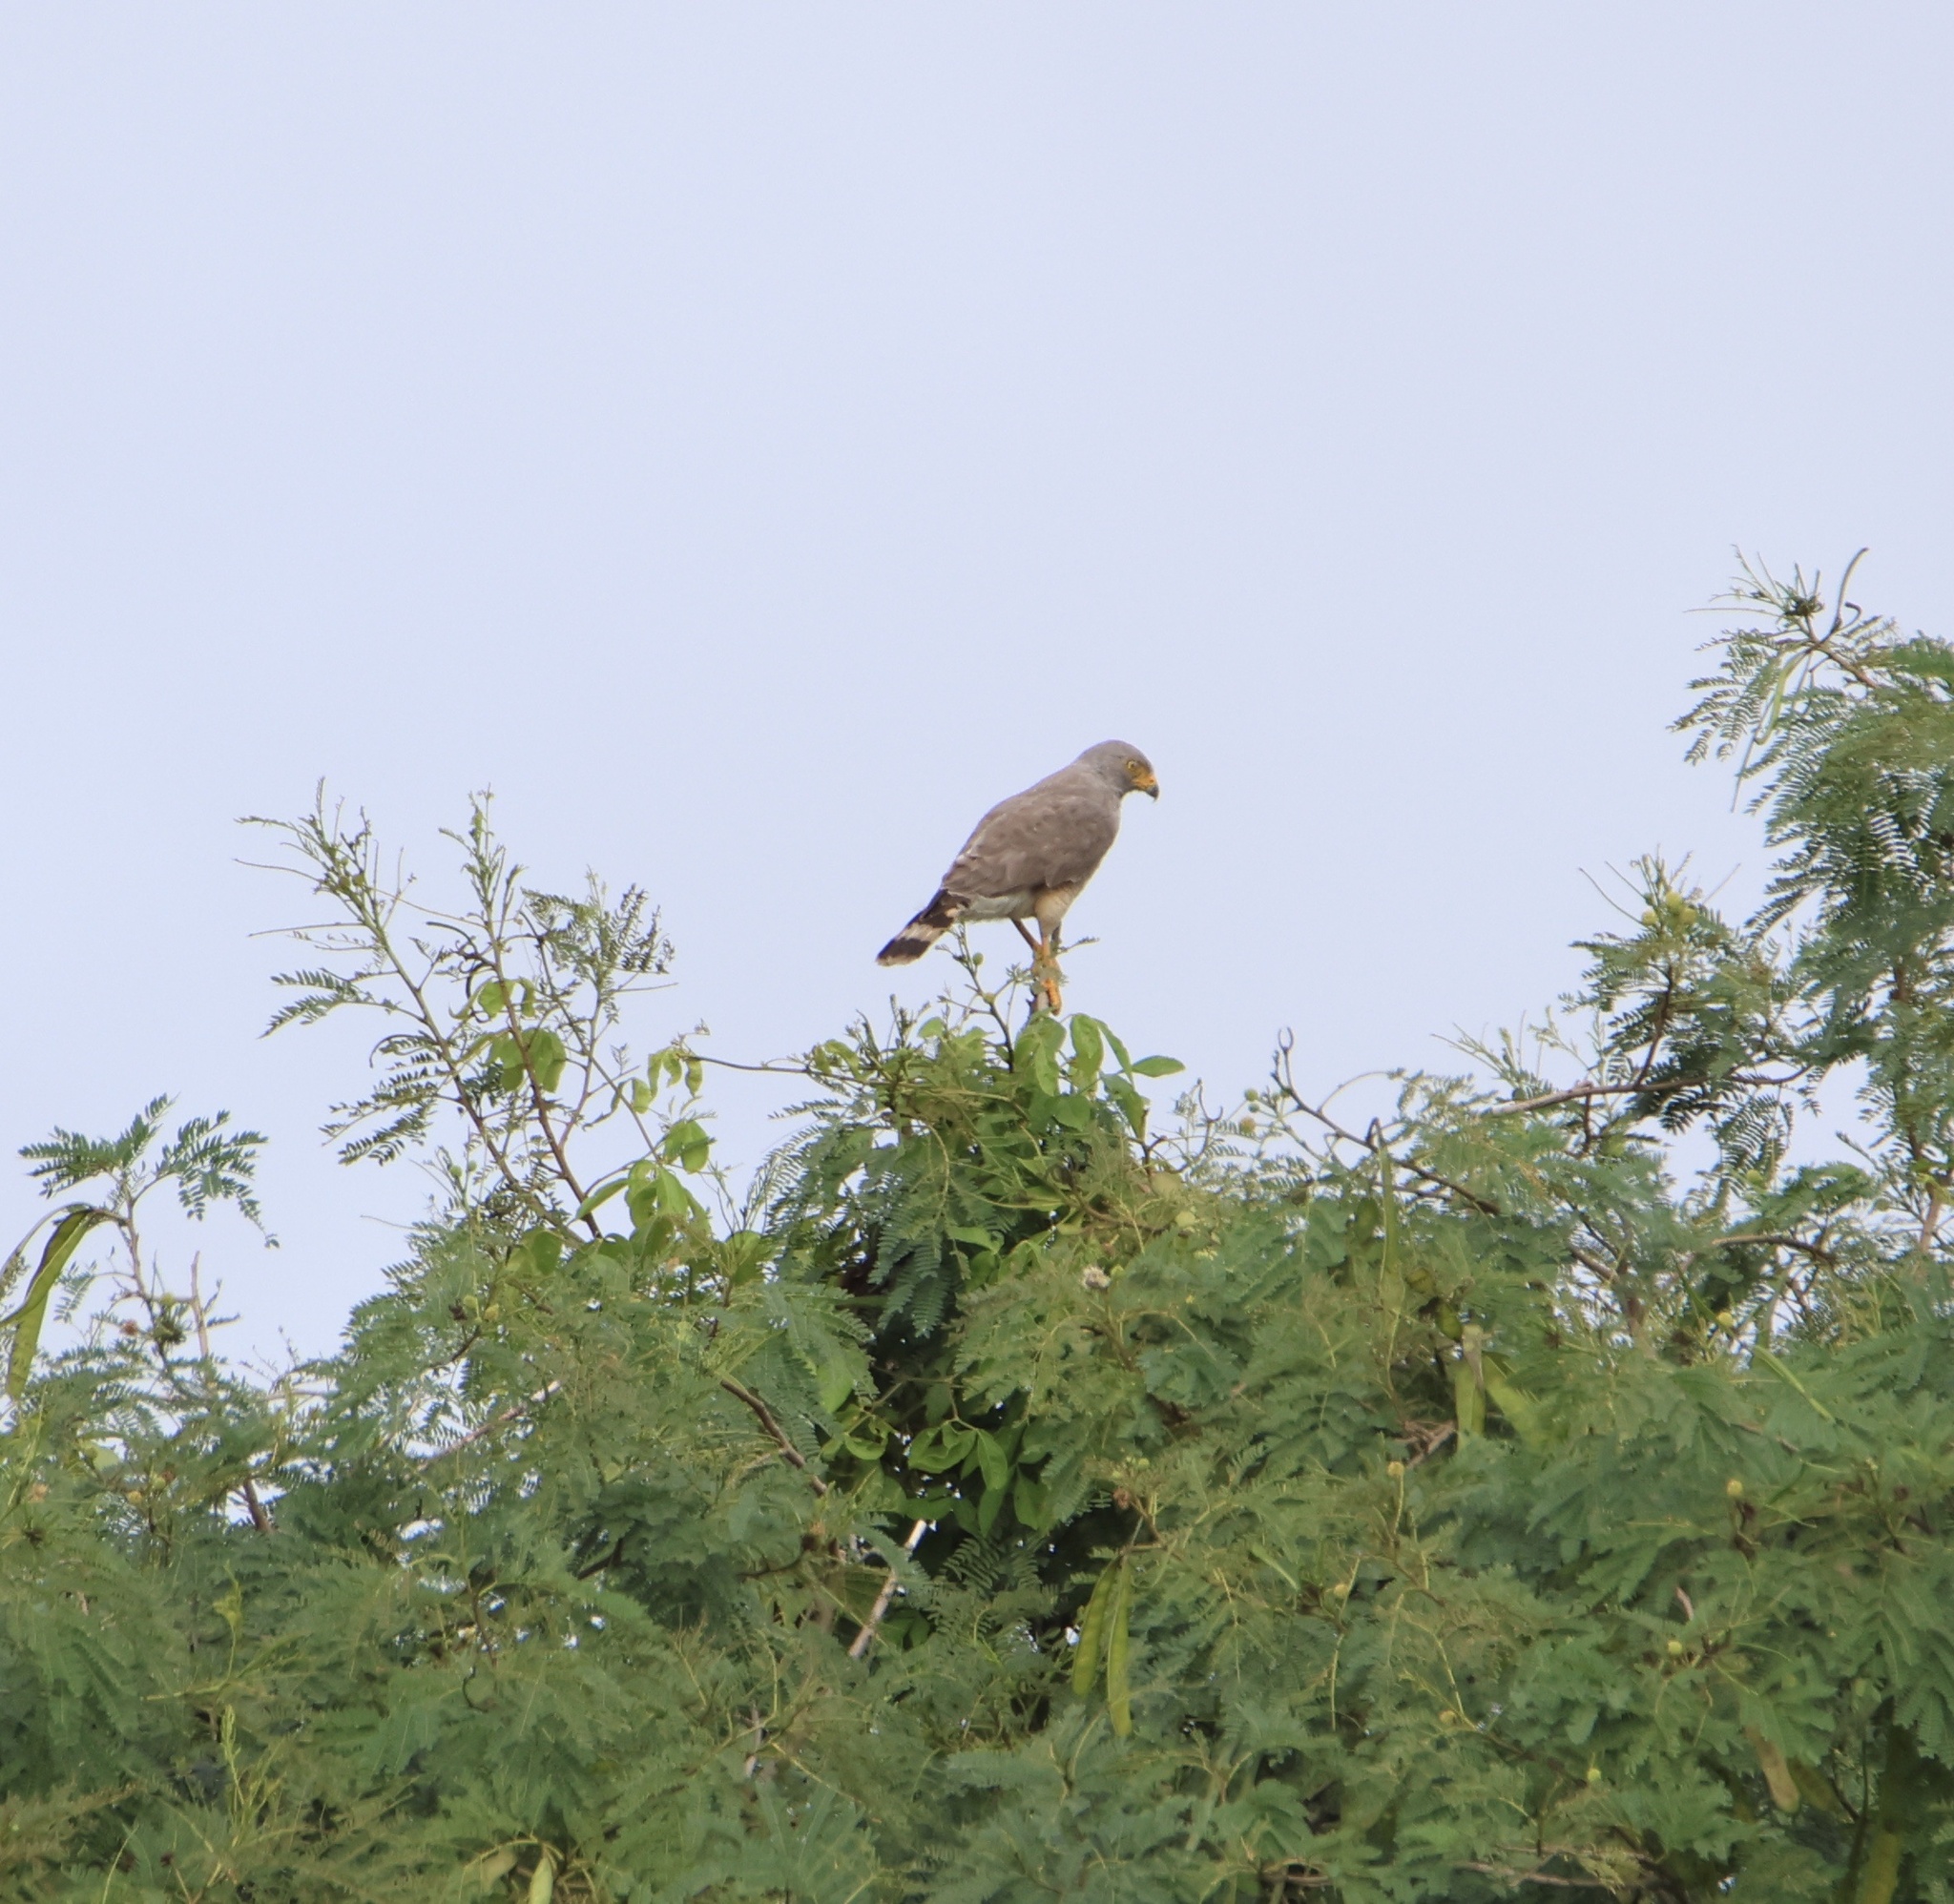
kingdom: Animalia
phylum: Chordata
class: Aves
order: Accipitriformes
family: Accipitridae
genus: Rupornis
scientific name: Rupornis magnirostris
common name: Roadside hawk
